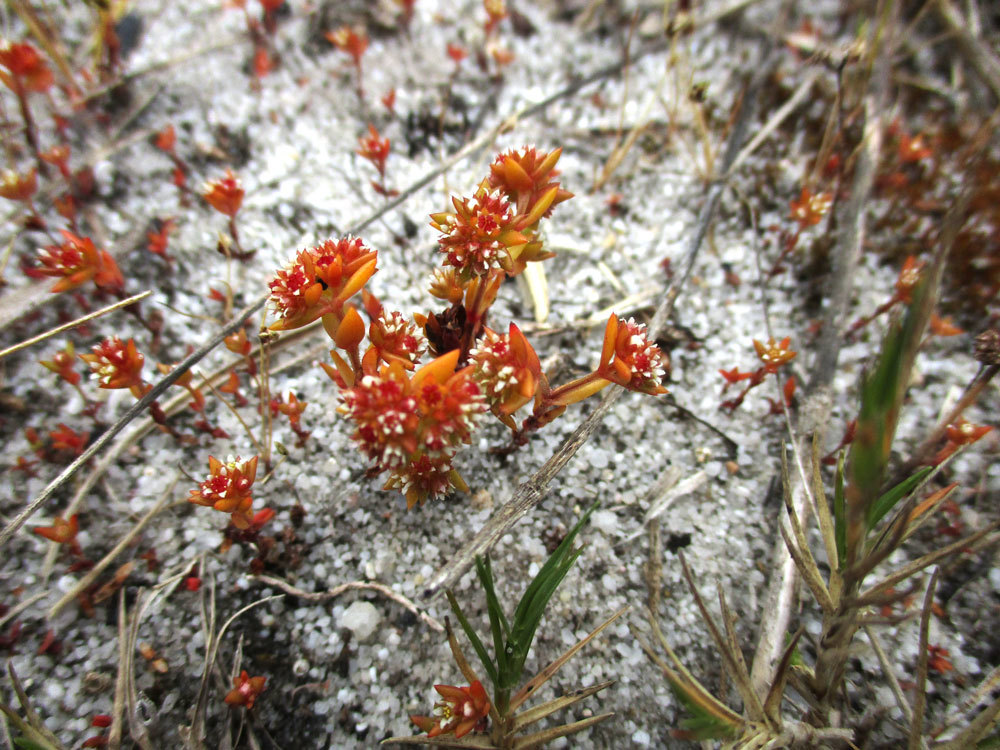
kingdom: Plantae
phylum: Tracheophyta
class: Magnoliopsida
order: Saxifragales
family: Crassulaceae
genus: Crassula
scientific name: Crassula glomerata
